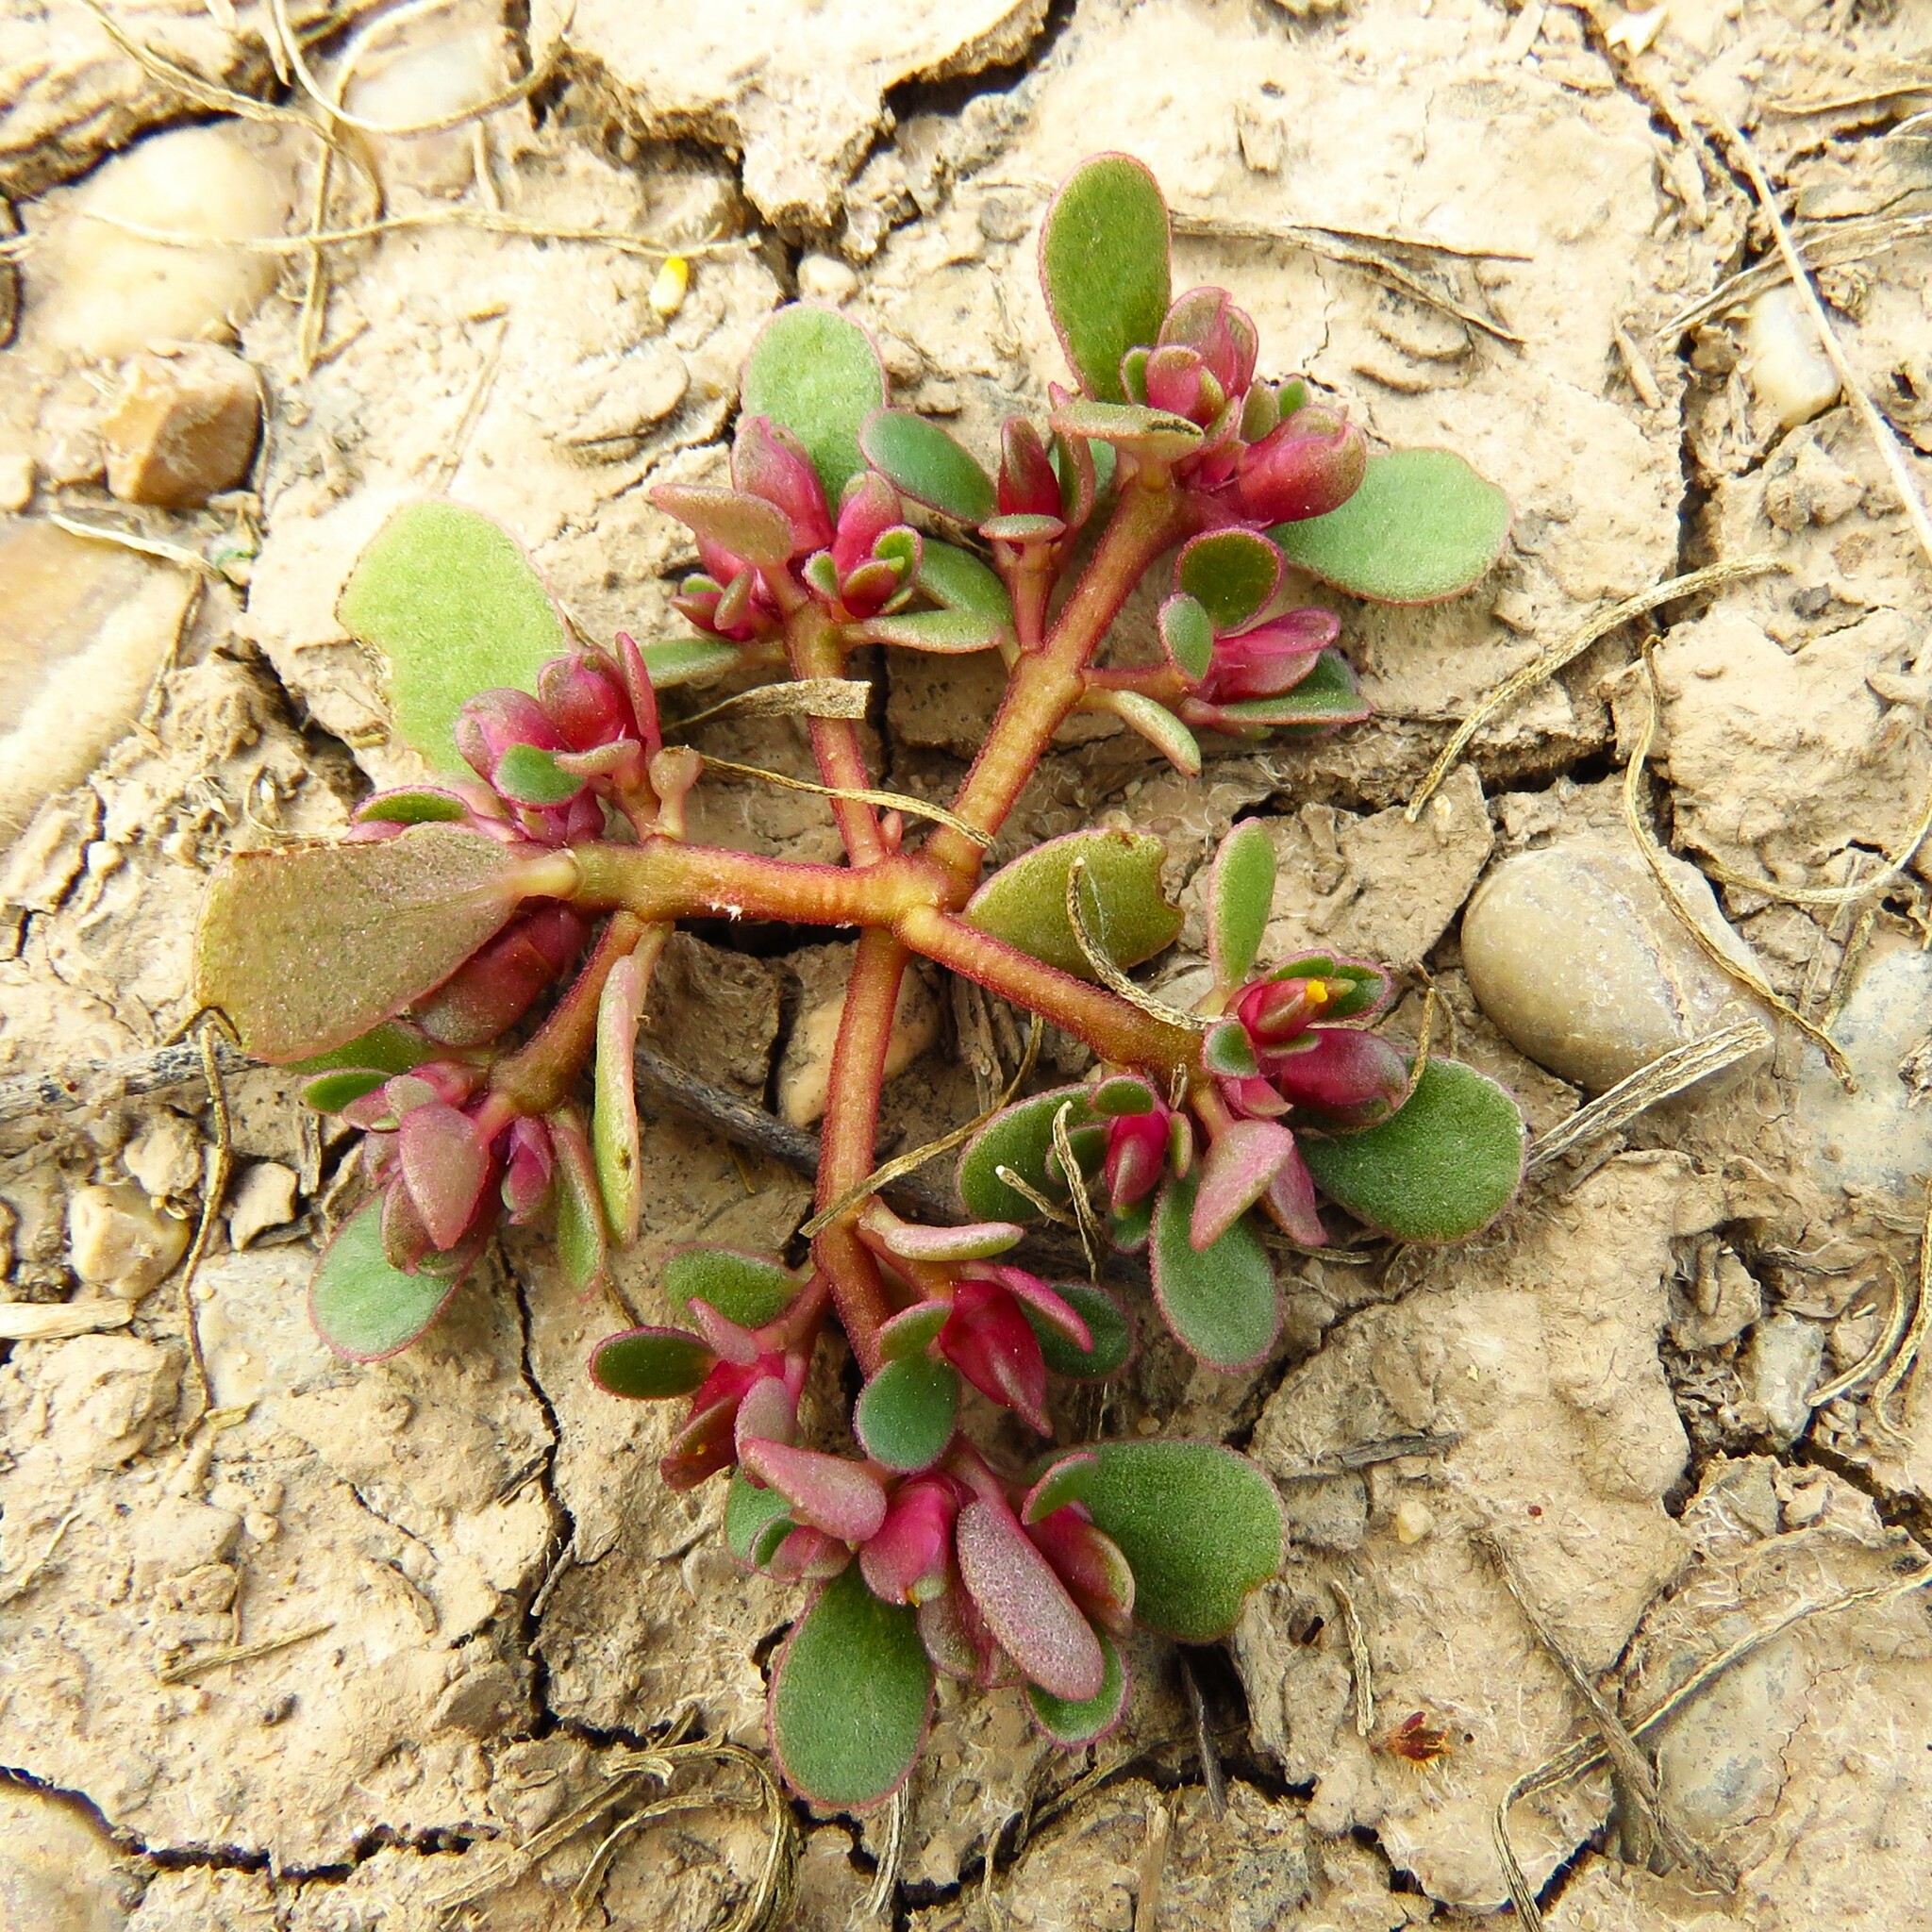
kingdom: Plantae
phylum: Tracheophyta
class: Magnoliopsida
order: Caryophyllales
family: Portulacaceae
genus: Portulaca
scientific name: Portulaca oleracea
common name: Common purslane
